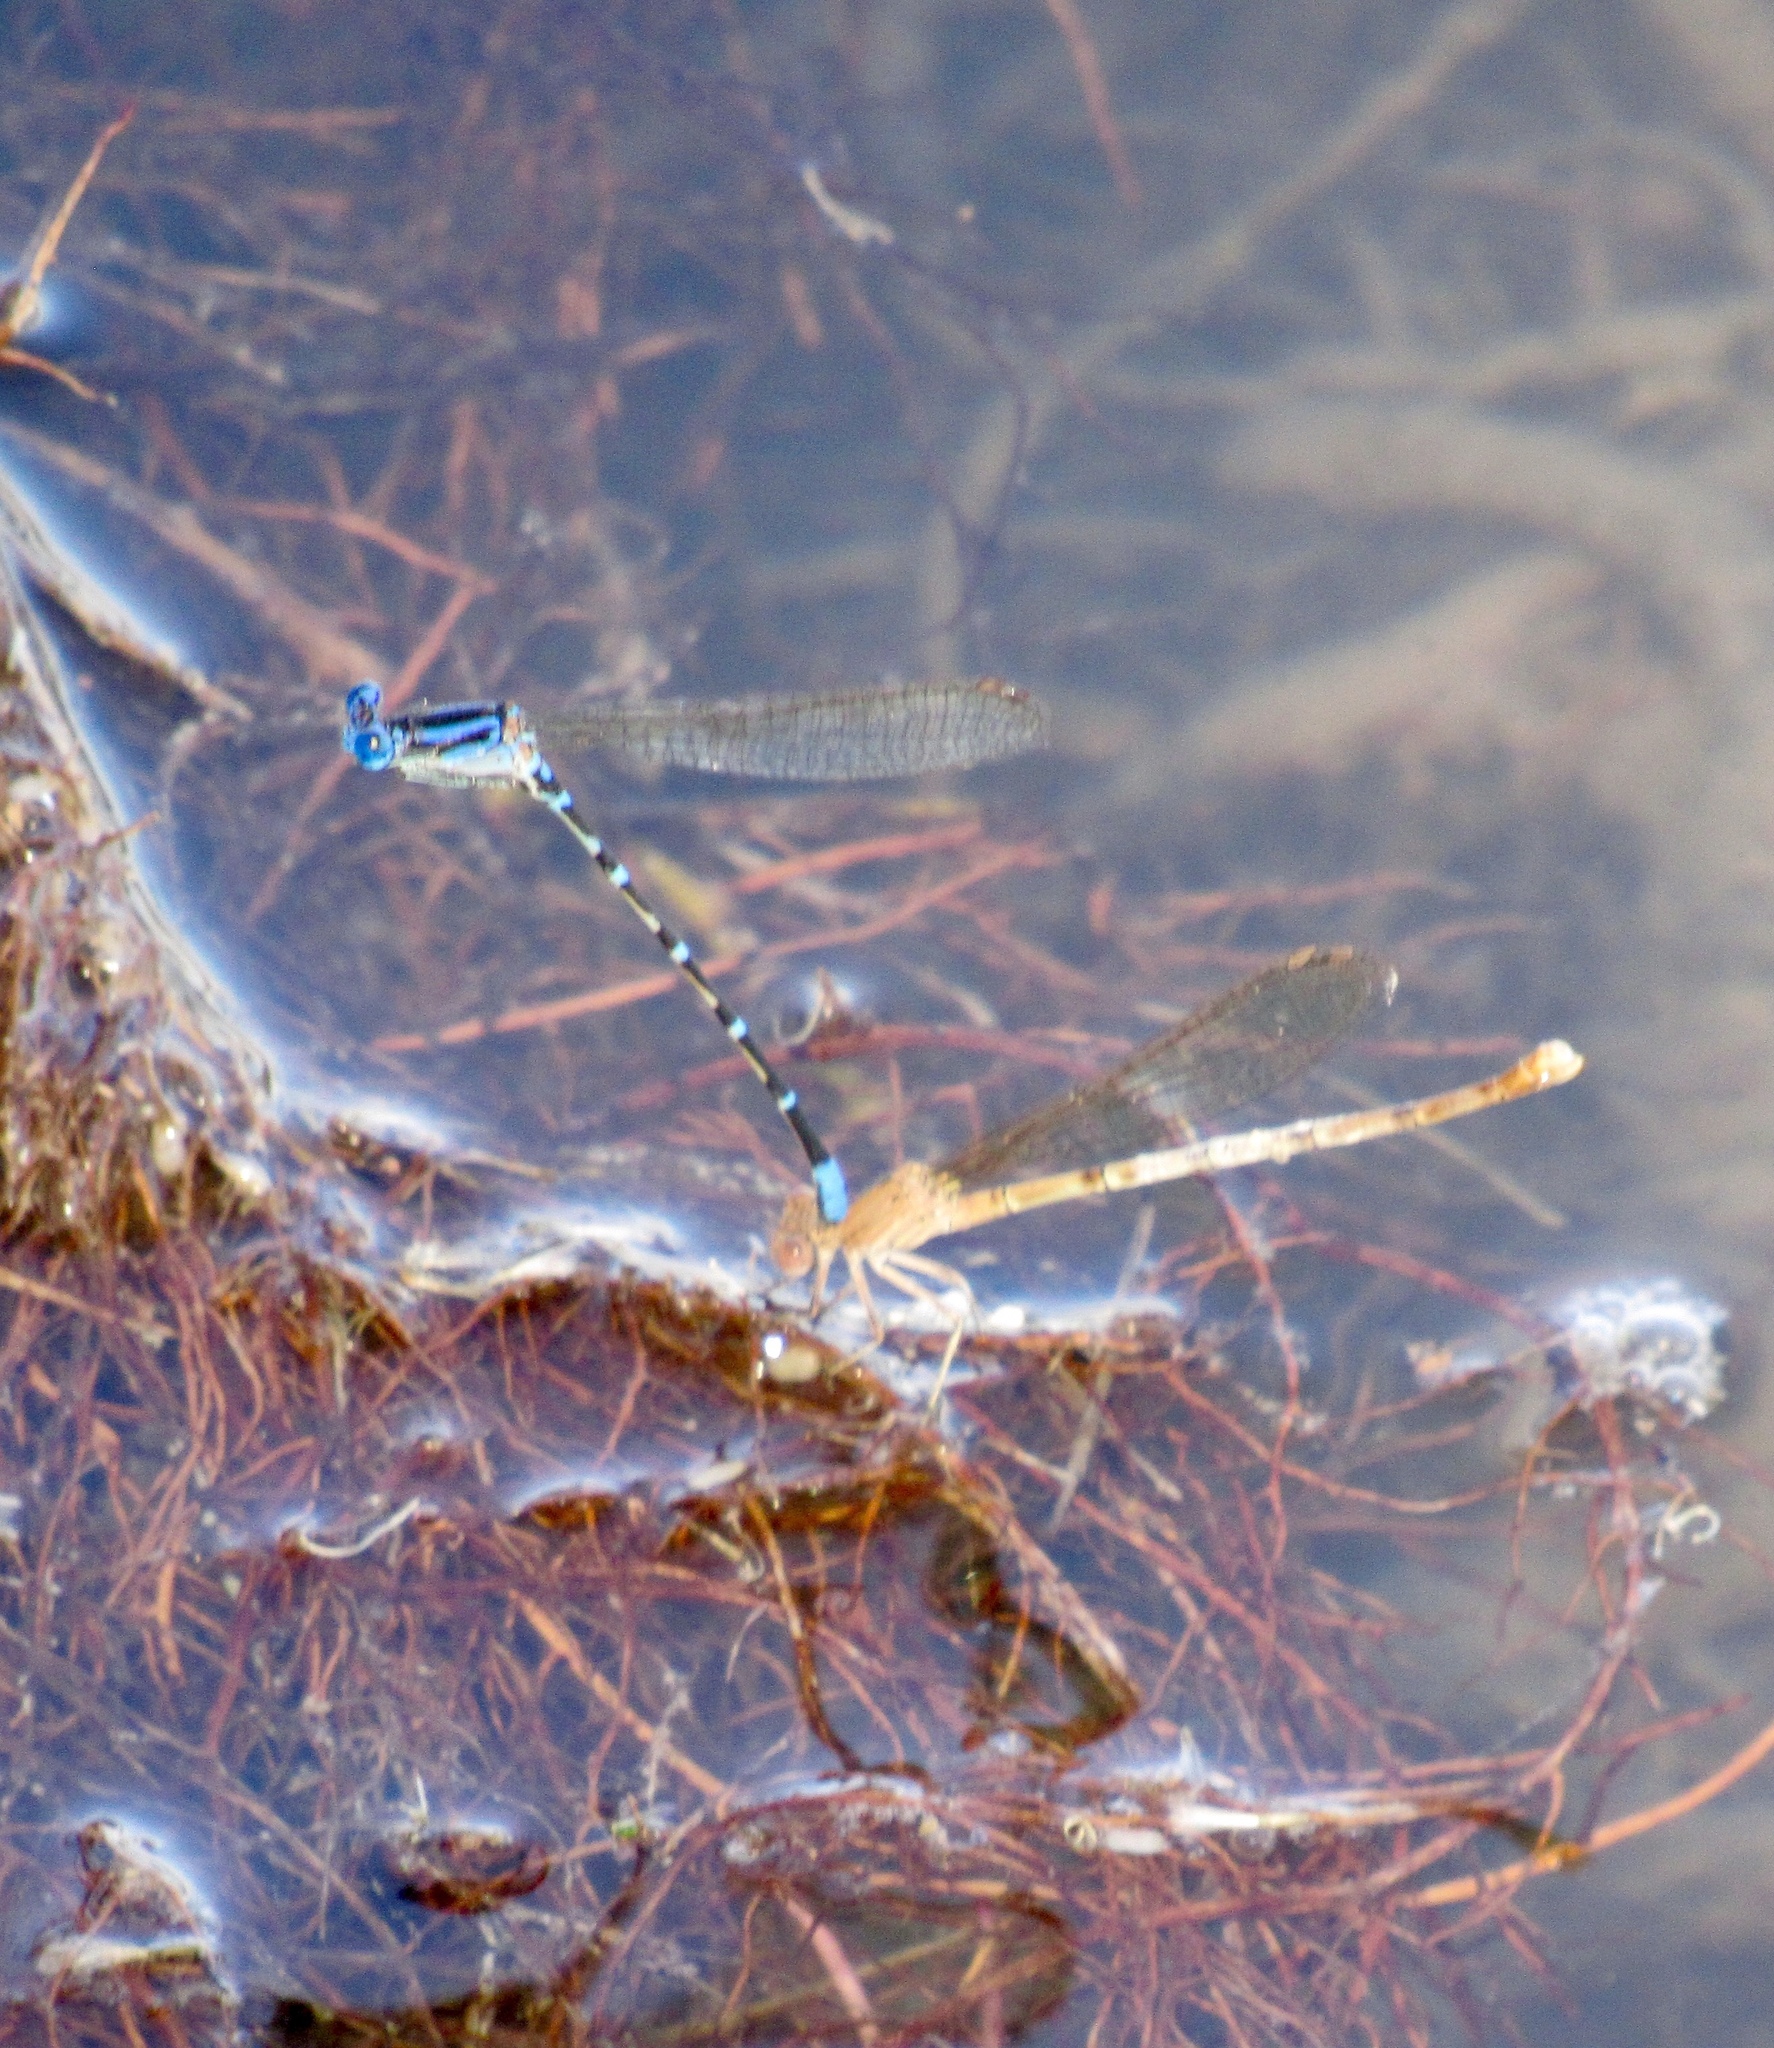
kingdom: Animalia
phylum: Arthropoda
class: Insecta
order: Odonata
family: Coenagrionidae
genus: Argia
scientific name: Argia sedula
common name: Blue-ringed dancer
